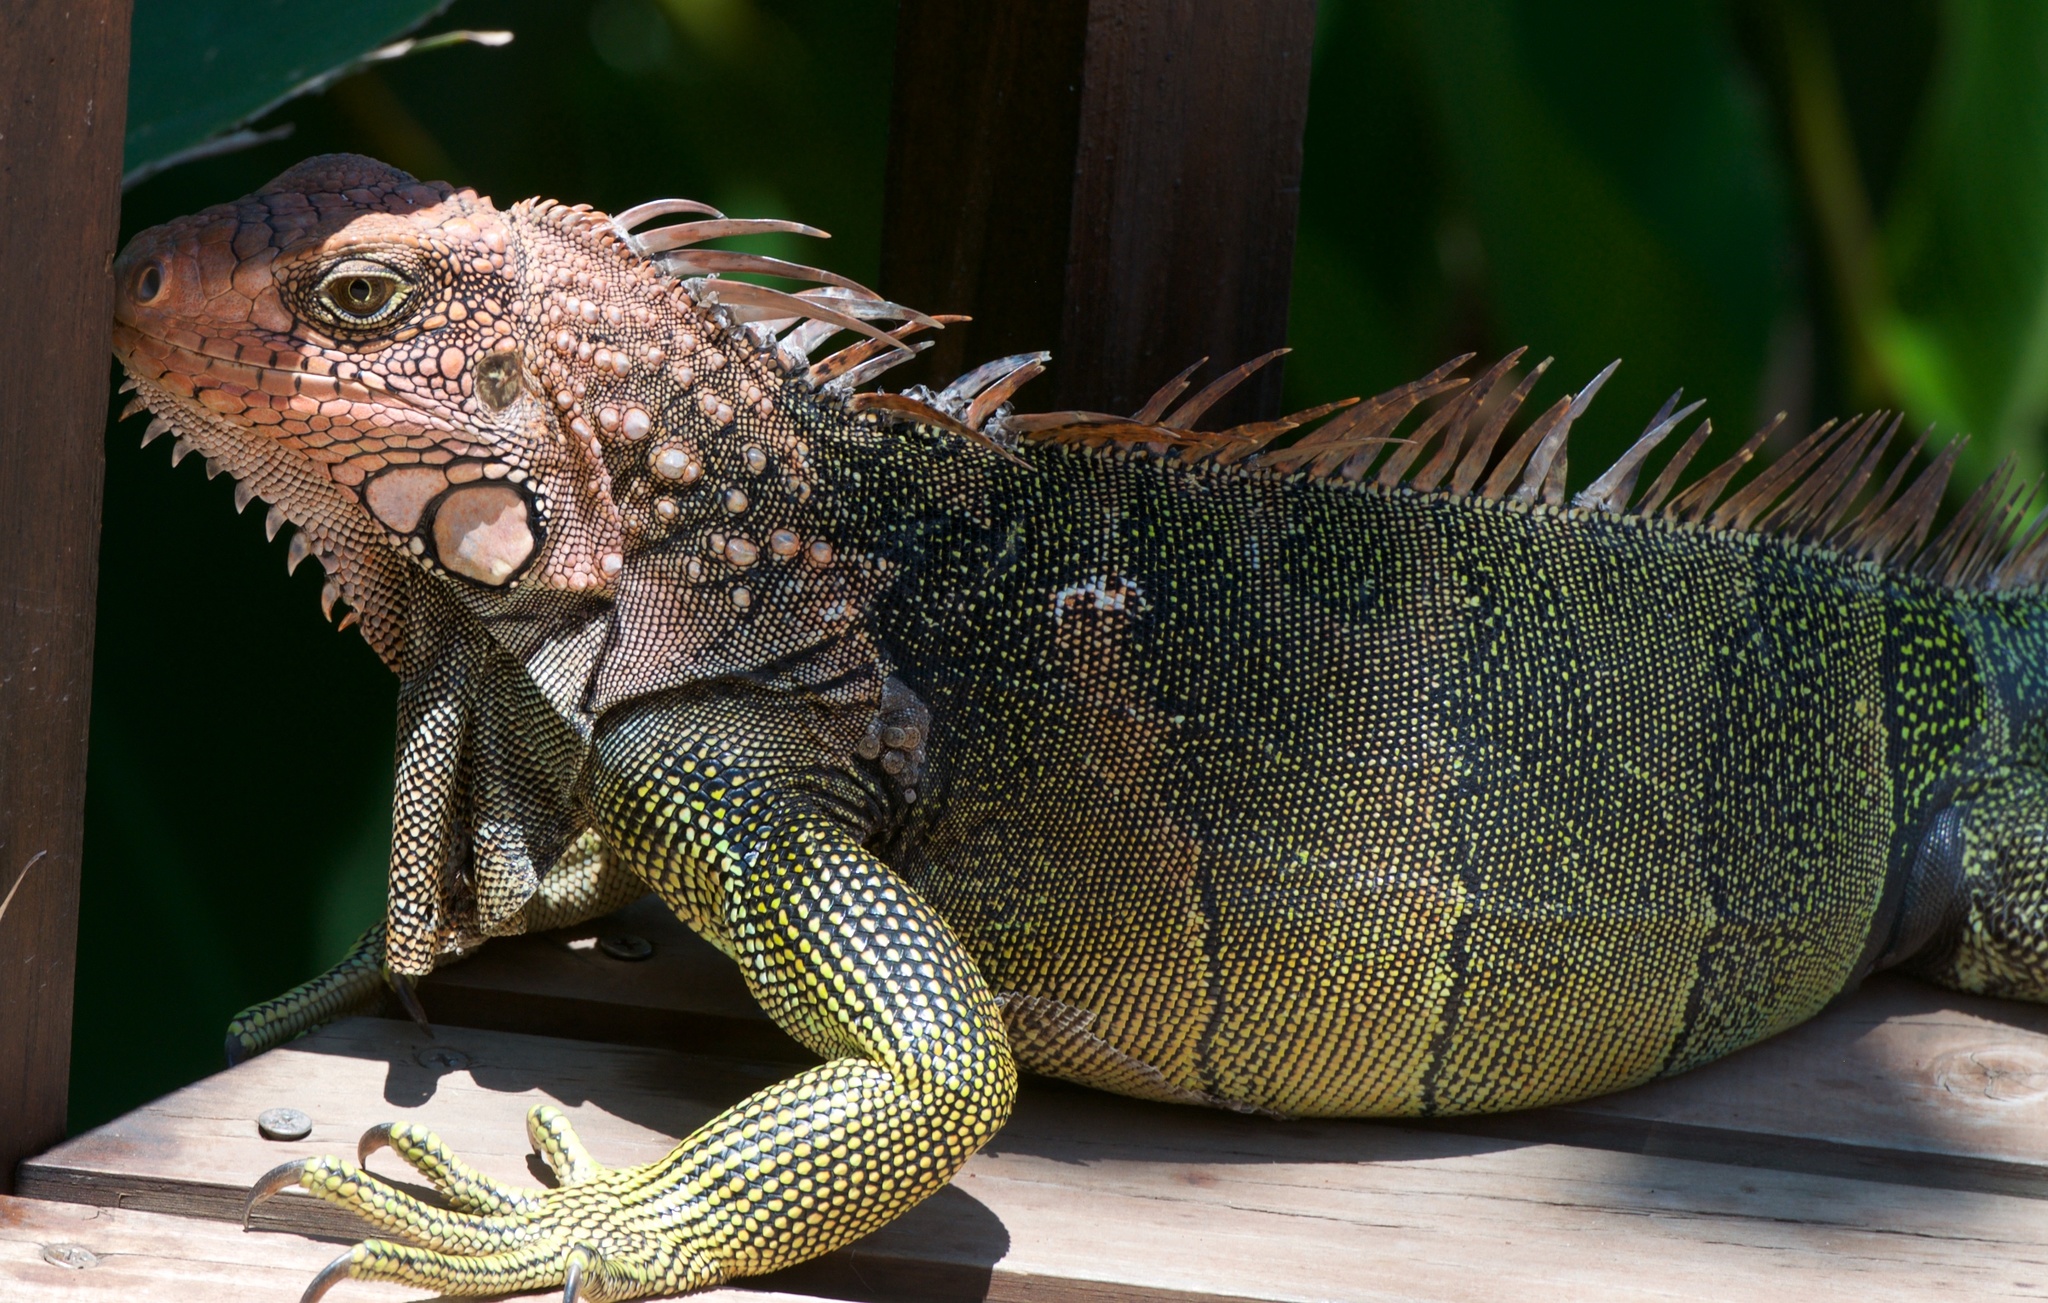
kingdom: Animalia
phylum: Chordata
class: Squamata
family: Iguanidae
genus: Iguana
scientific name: Iguana iguana
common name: Green iguana
